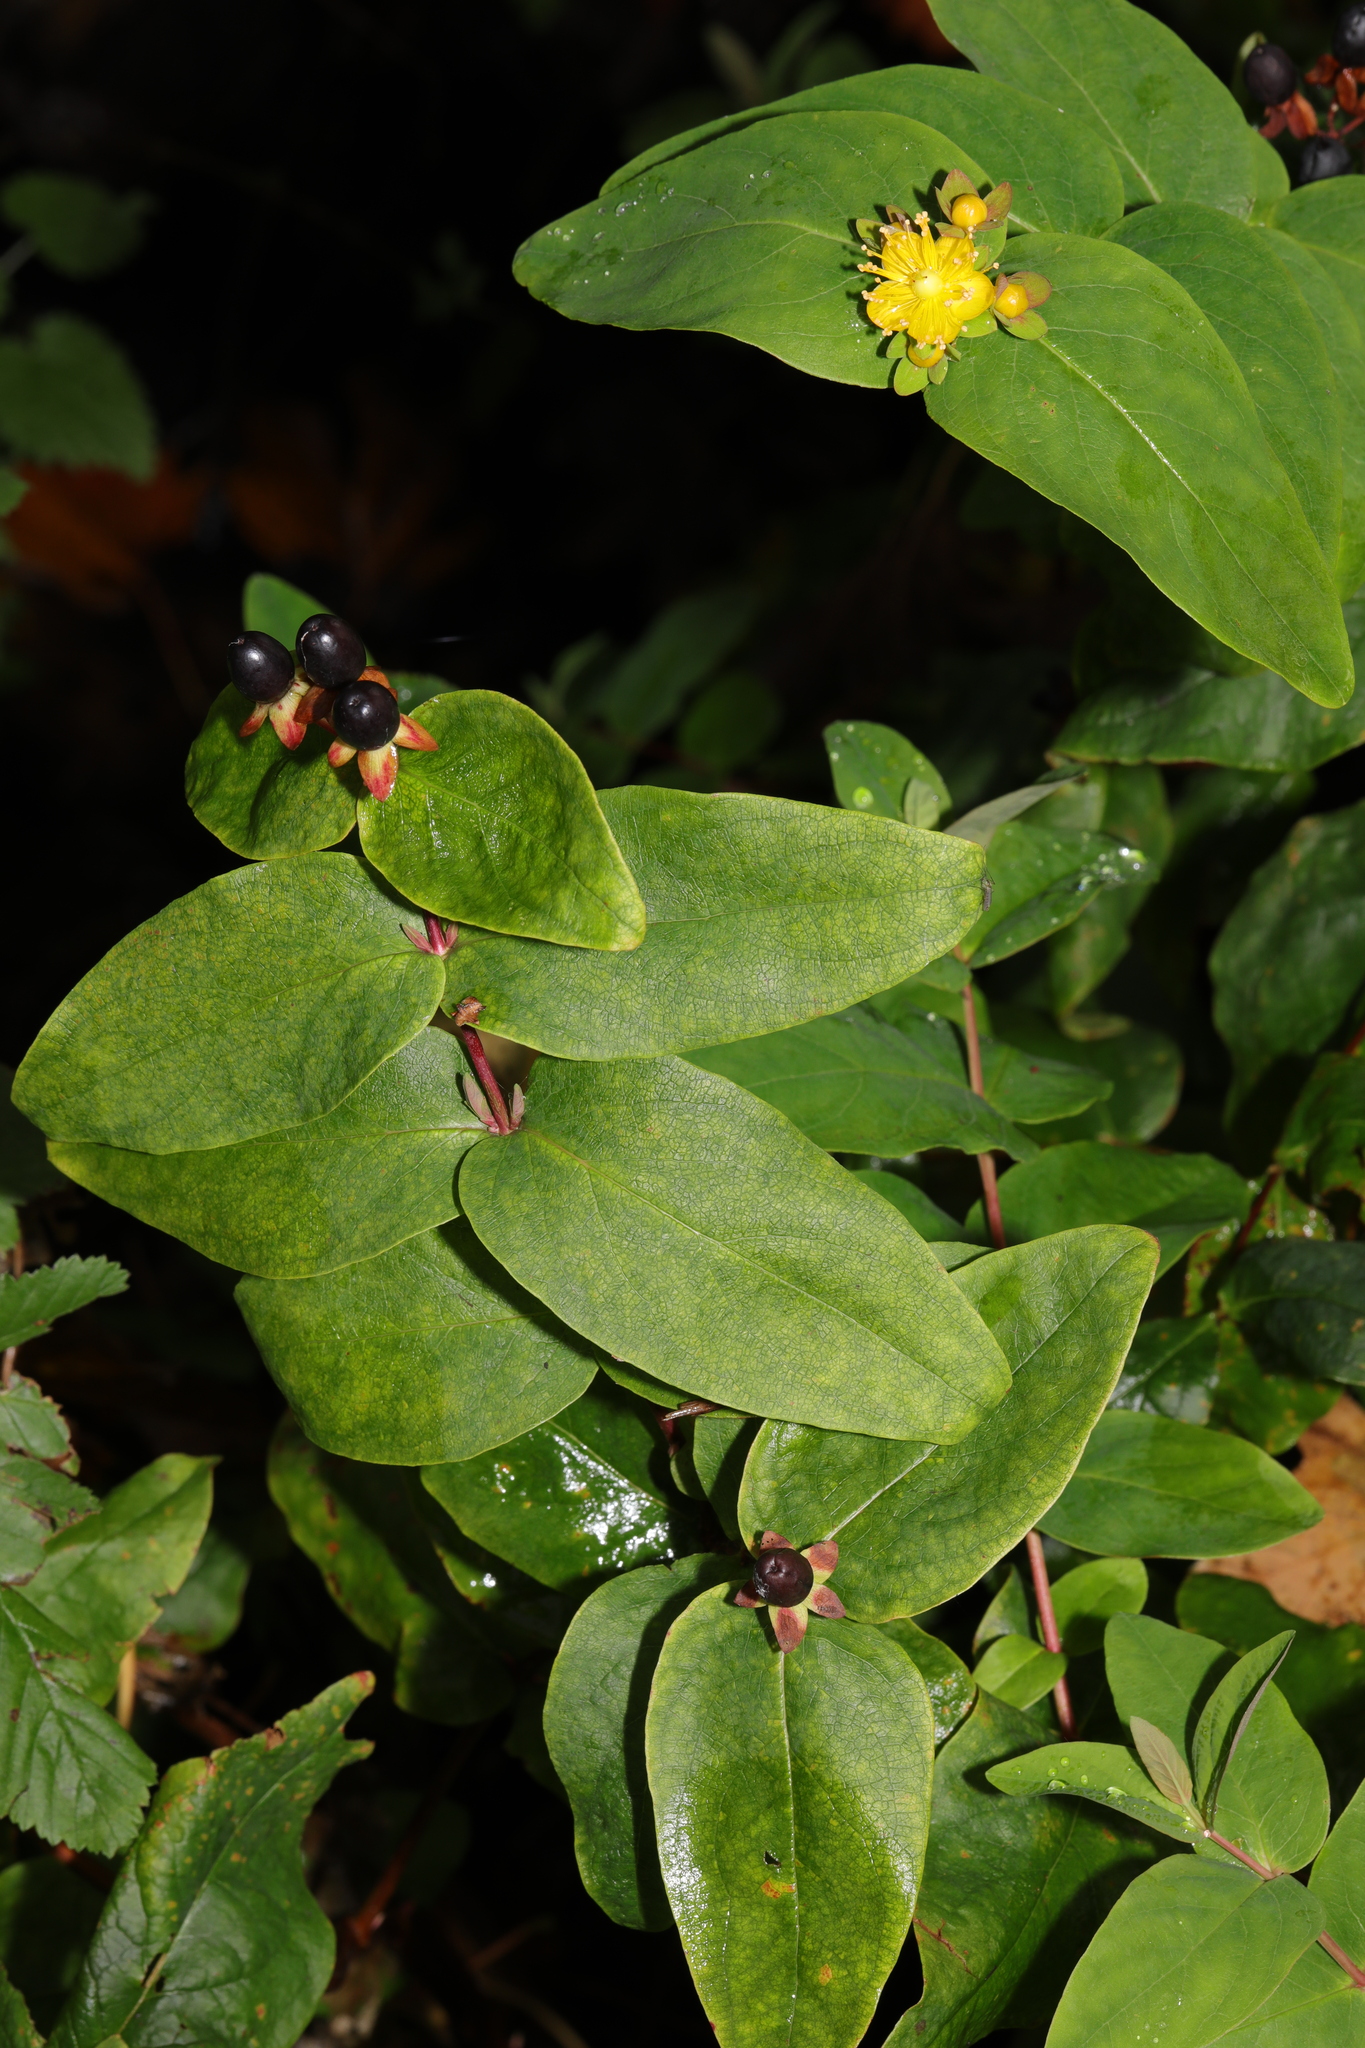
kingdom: Plantae
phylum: Tracheophyta
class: Magnoliopsida
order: Malpighiales
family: Hypericaceae
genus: Hypericum
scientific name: Hypericum androsaemum
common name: Sweet-amber
